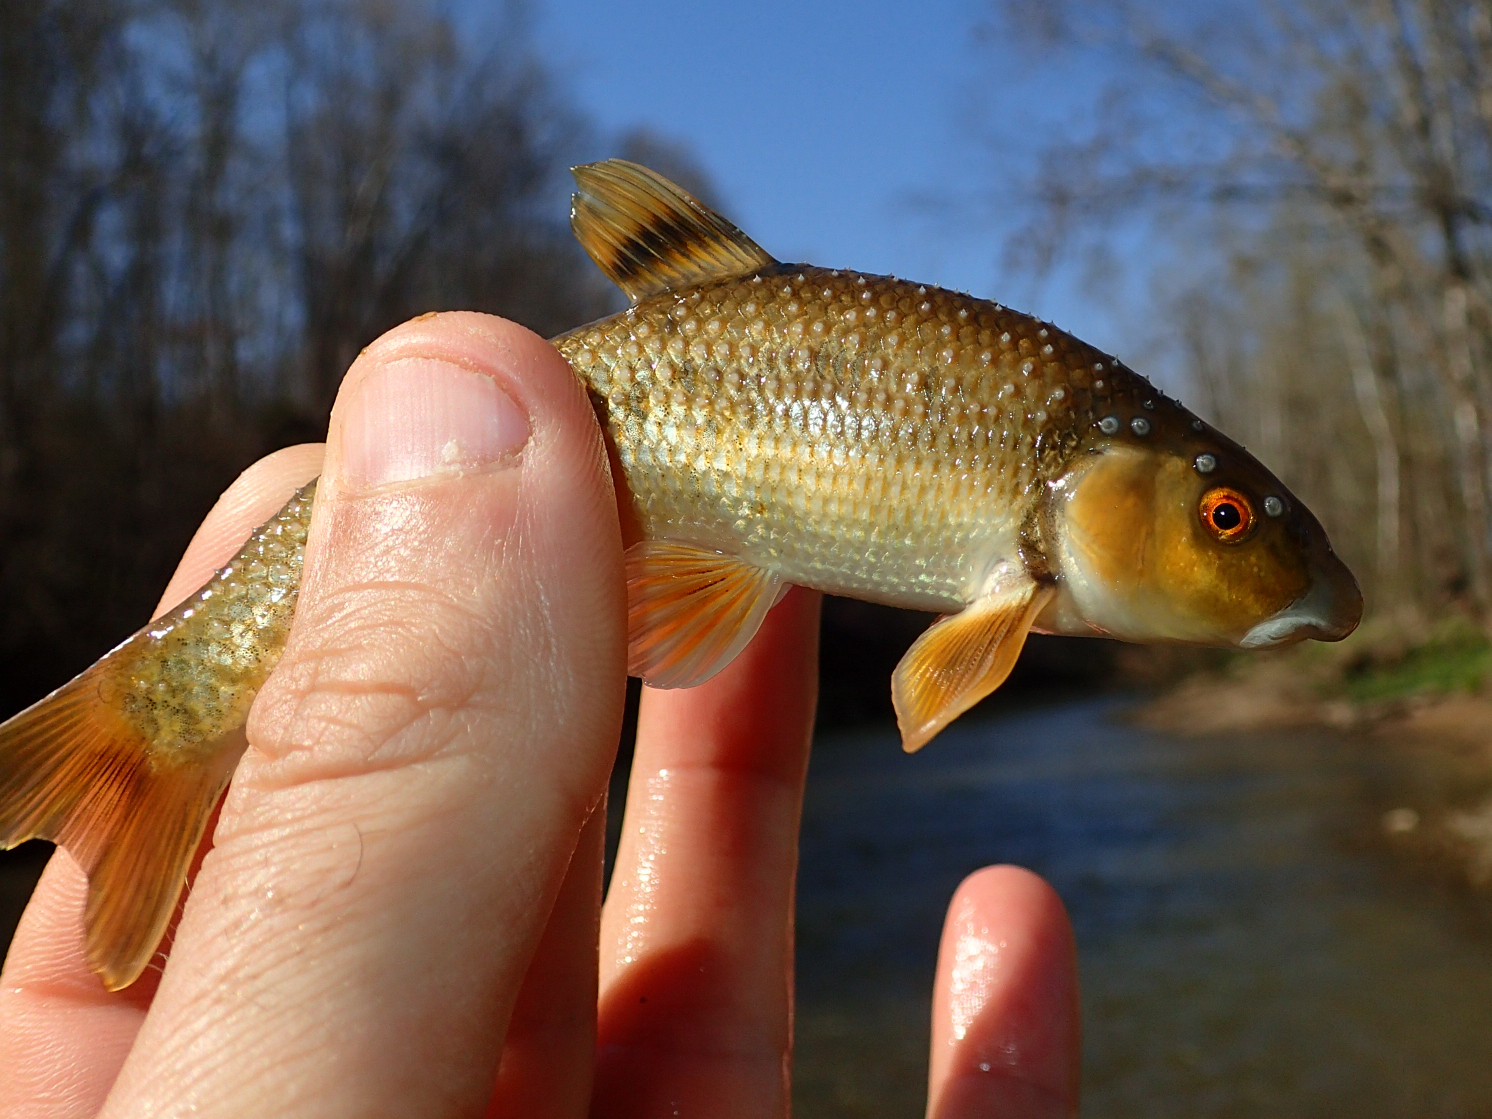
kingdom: Animalia
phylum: Chordata
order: Cypriniformes
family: Cyprinidae
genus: Campostoma
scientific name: Campostoma oligolepis
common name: Largescale stoneroller
